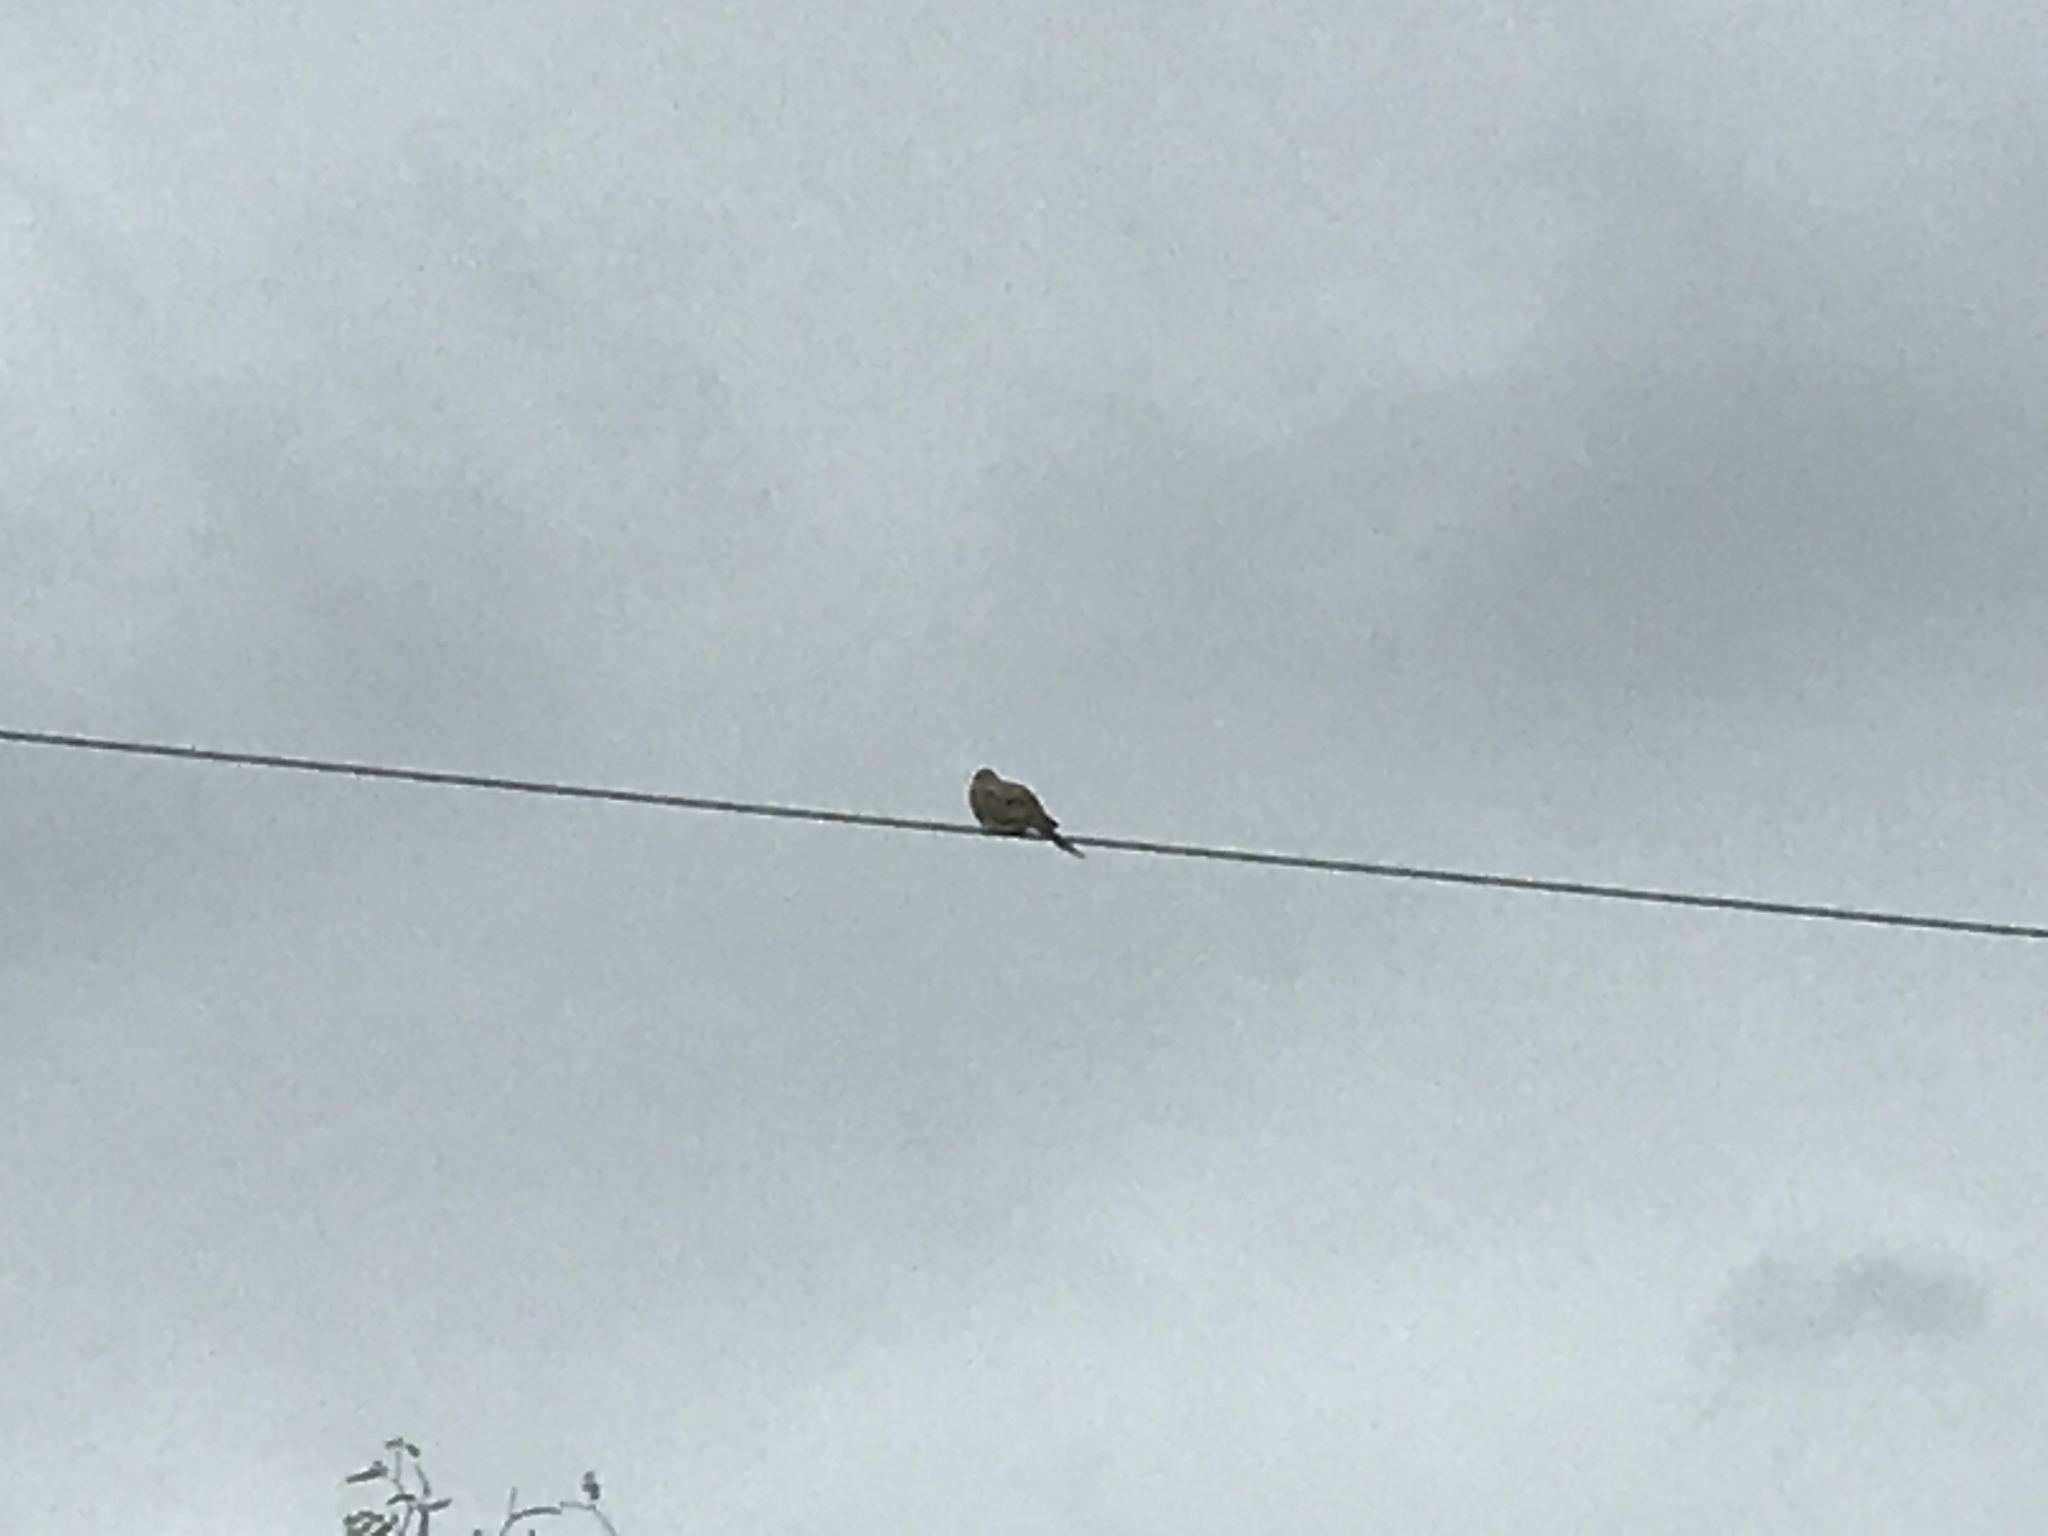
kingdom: Animalia
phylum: Chordata
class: Aves
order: Columbiformes
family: Columbidae
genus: Zenaida
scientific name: Zenaida macroura
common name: Mourning dove
